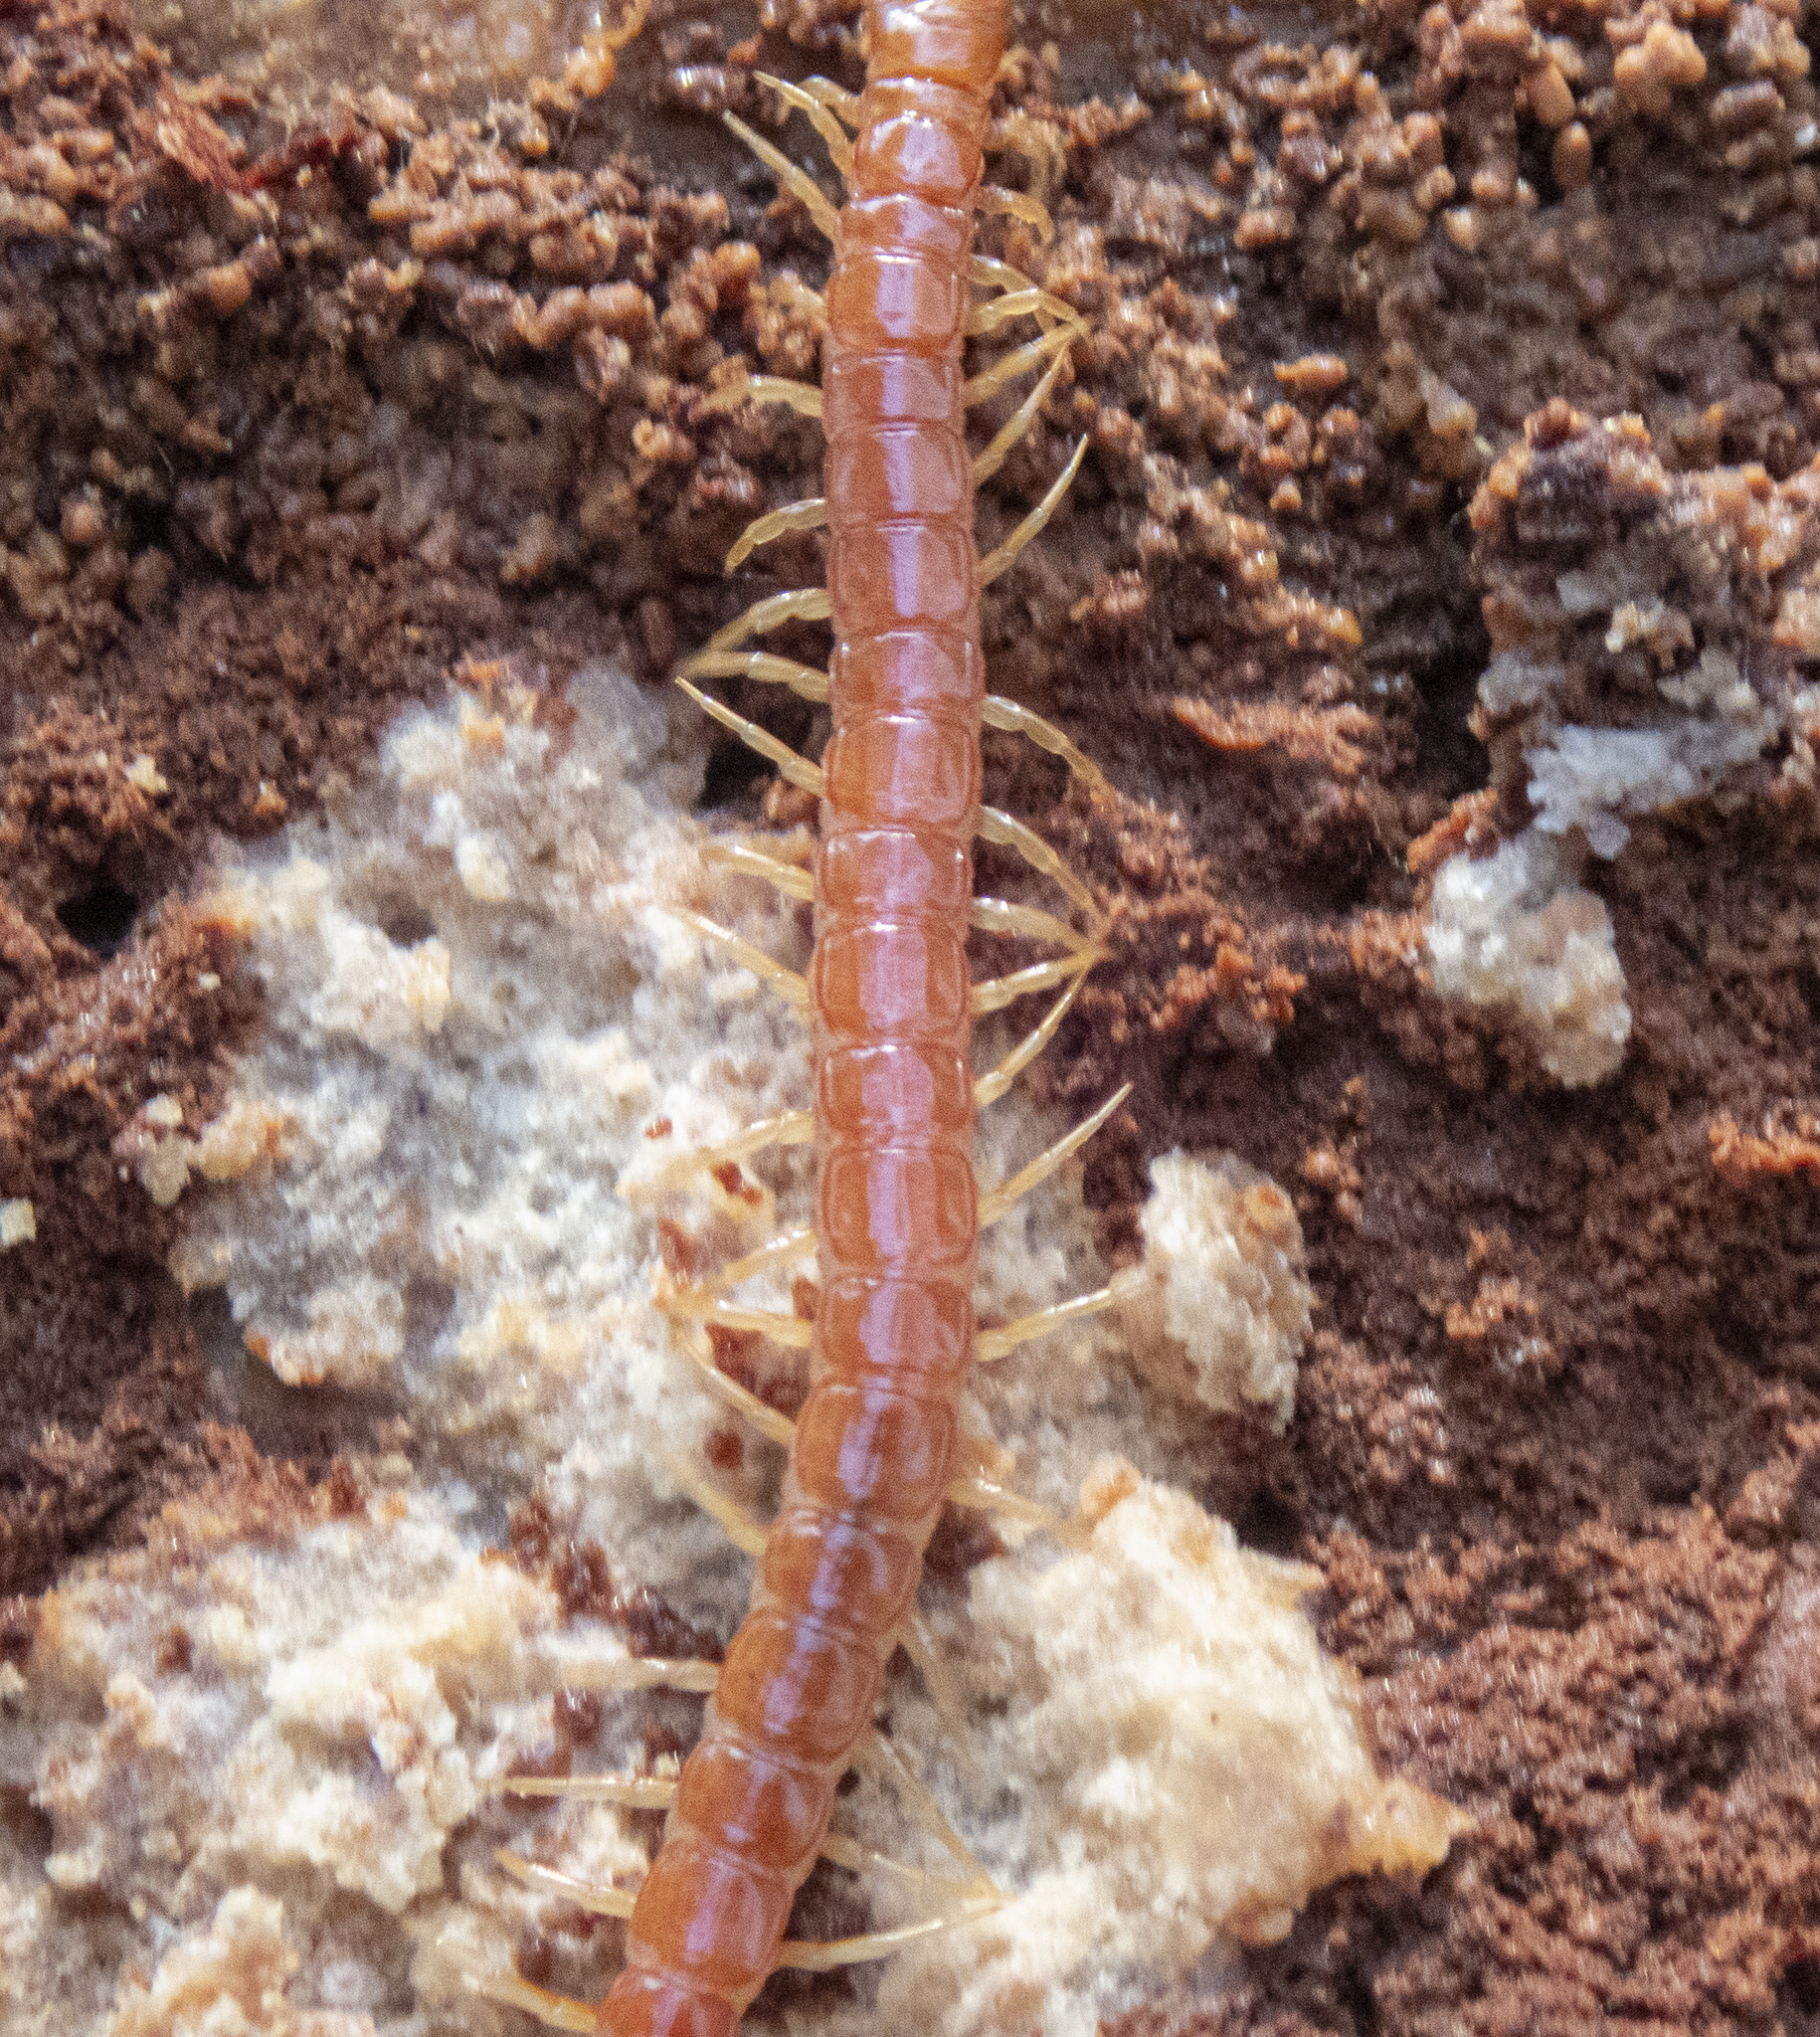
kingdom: Animalia
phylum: Arthropoda
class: Chilopoda
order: Scolopendromorpha
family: Scolopocryptopidae
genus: Scolopocryptops
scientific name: Scolopocryptops spinicaudus
